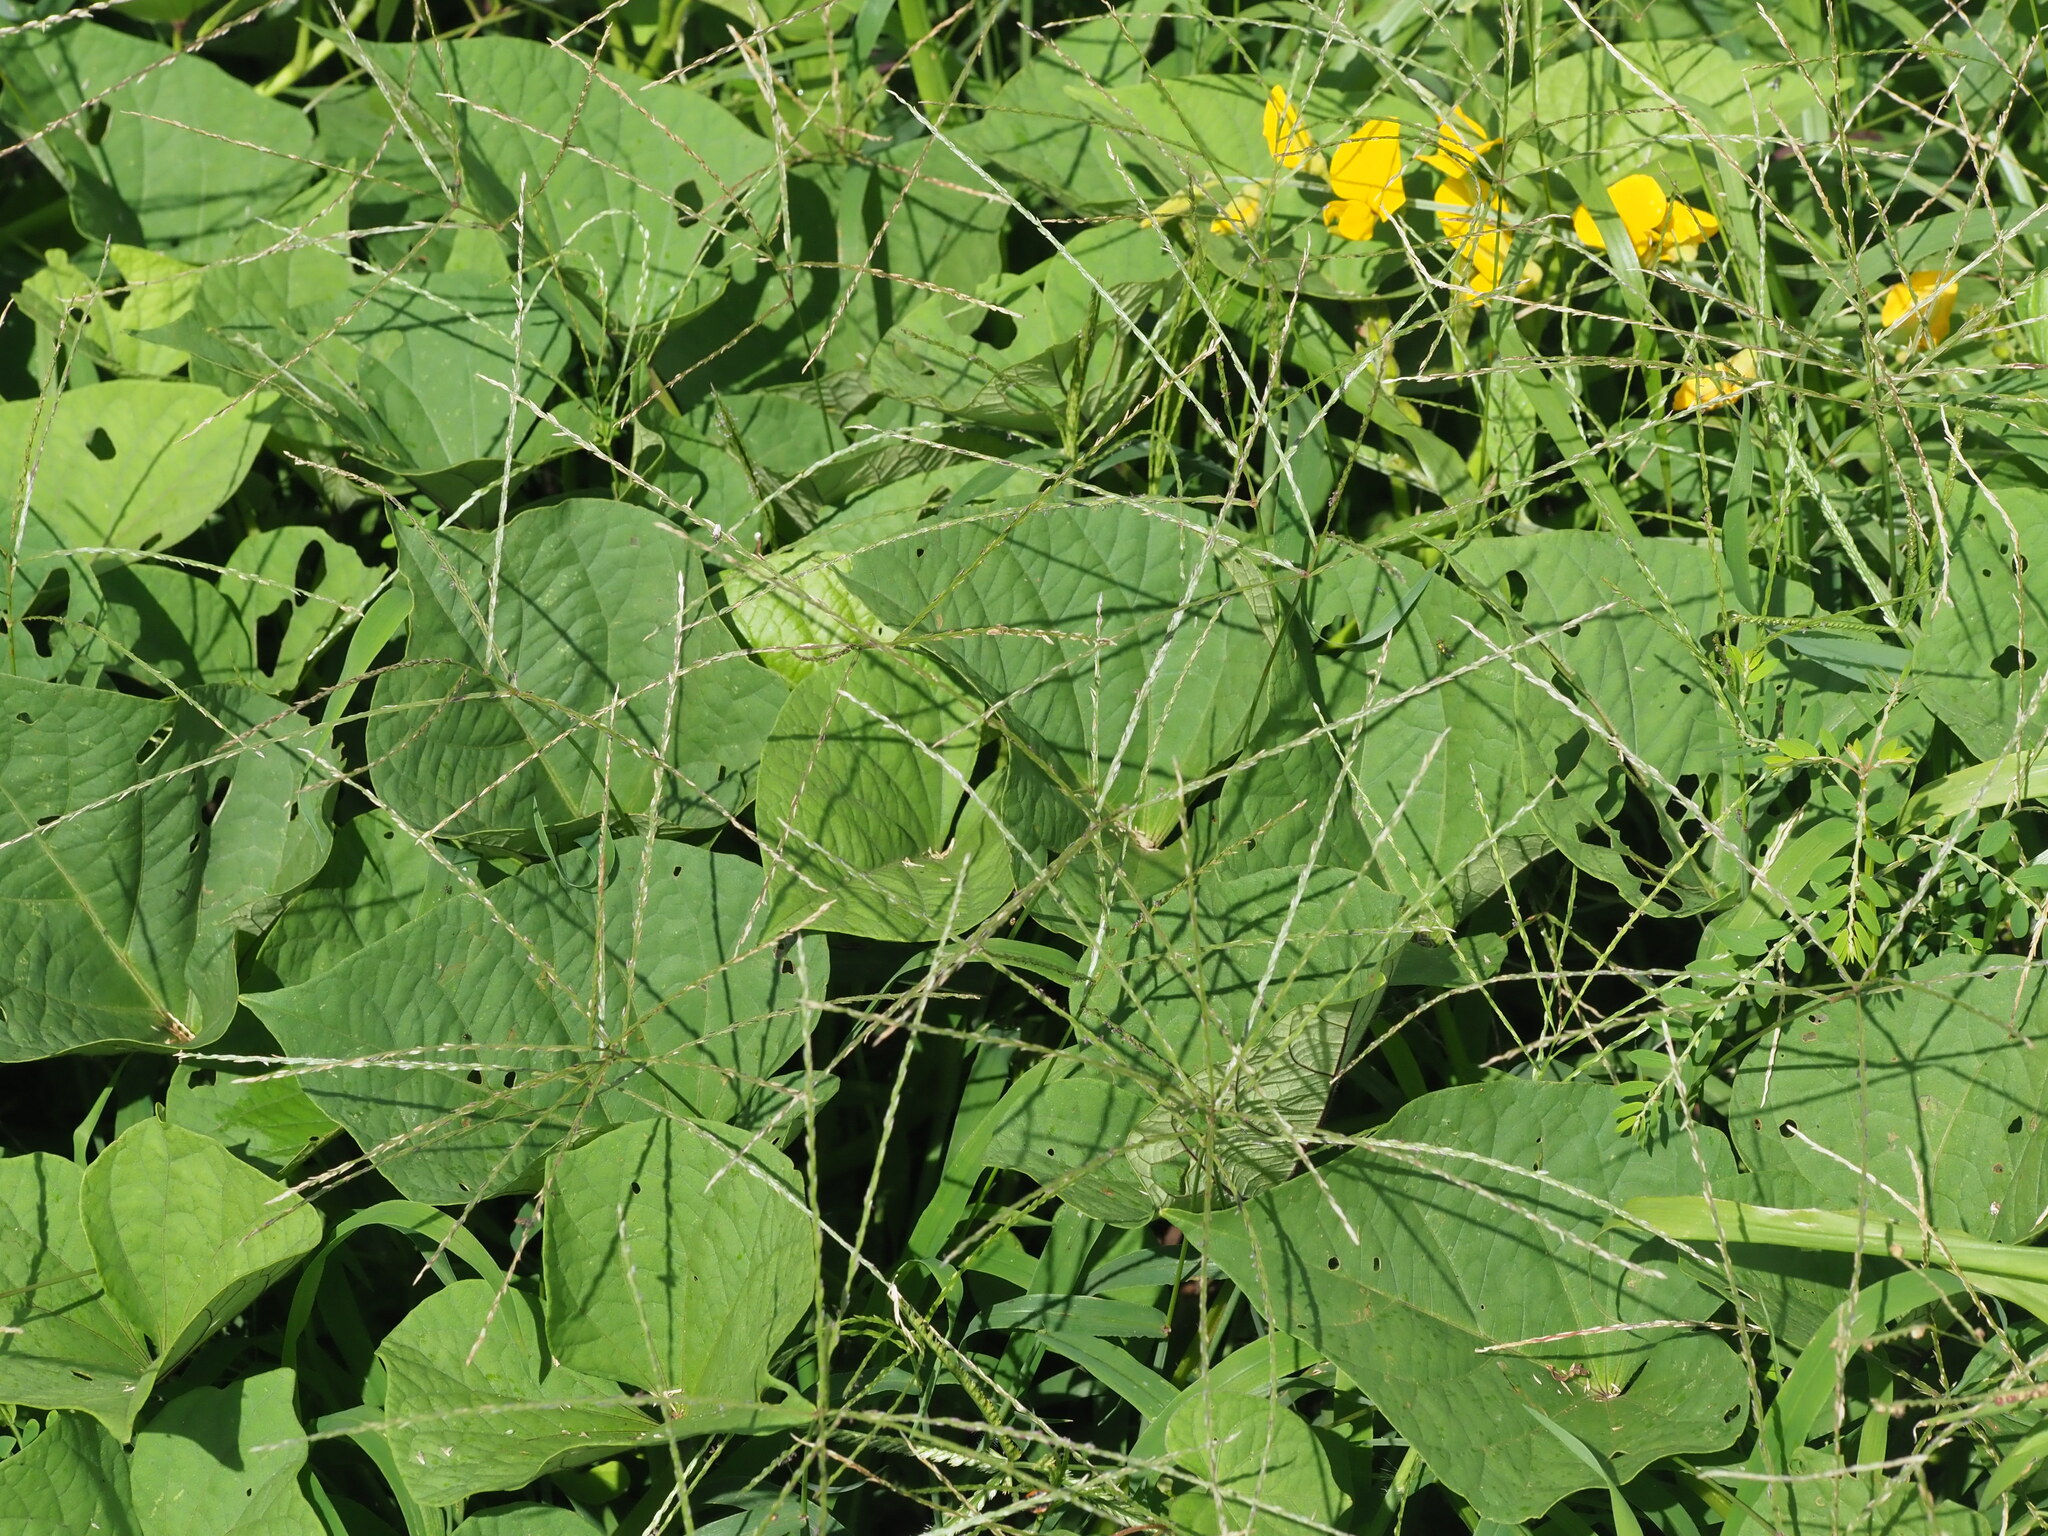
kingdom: Plantae
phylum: Tracheophyta
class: Liliopsida
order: Poales
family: Poaceae
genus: Digitaria
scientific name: Digitaria ciliaris
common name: Tropical finger-grass
